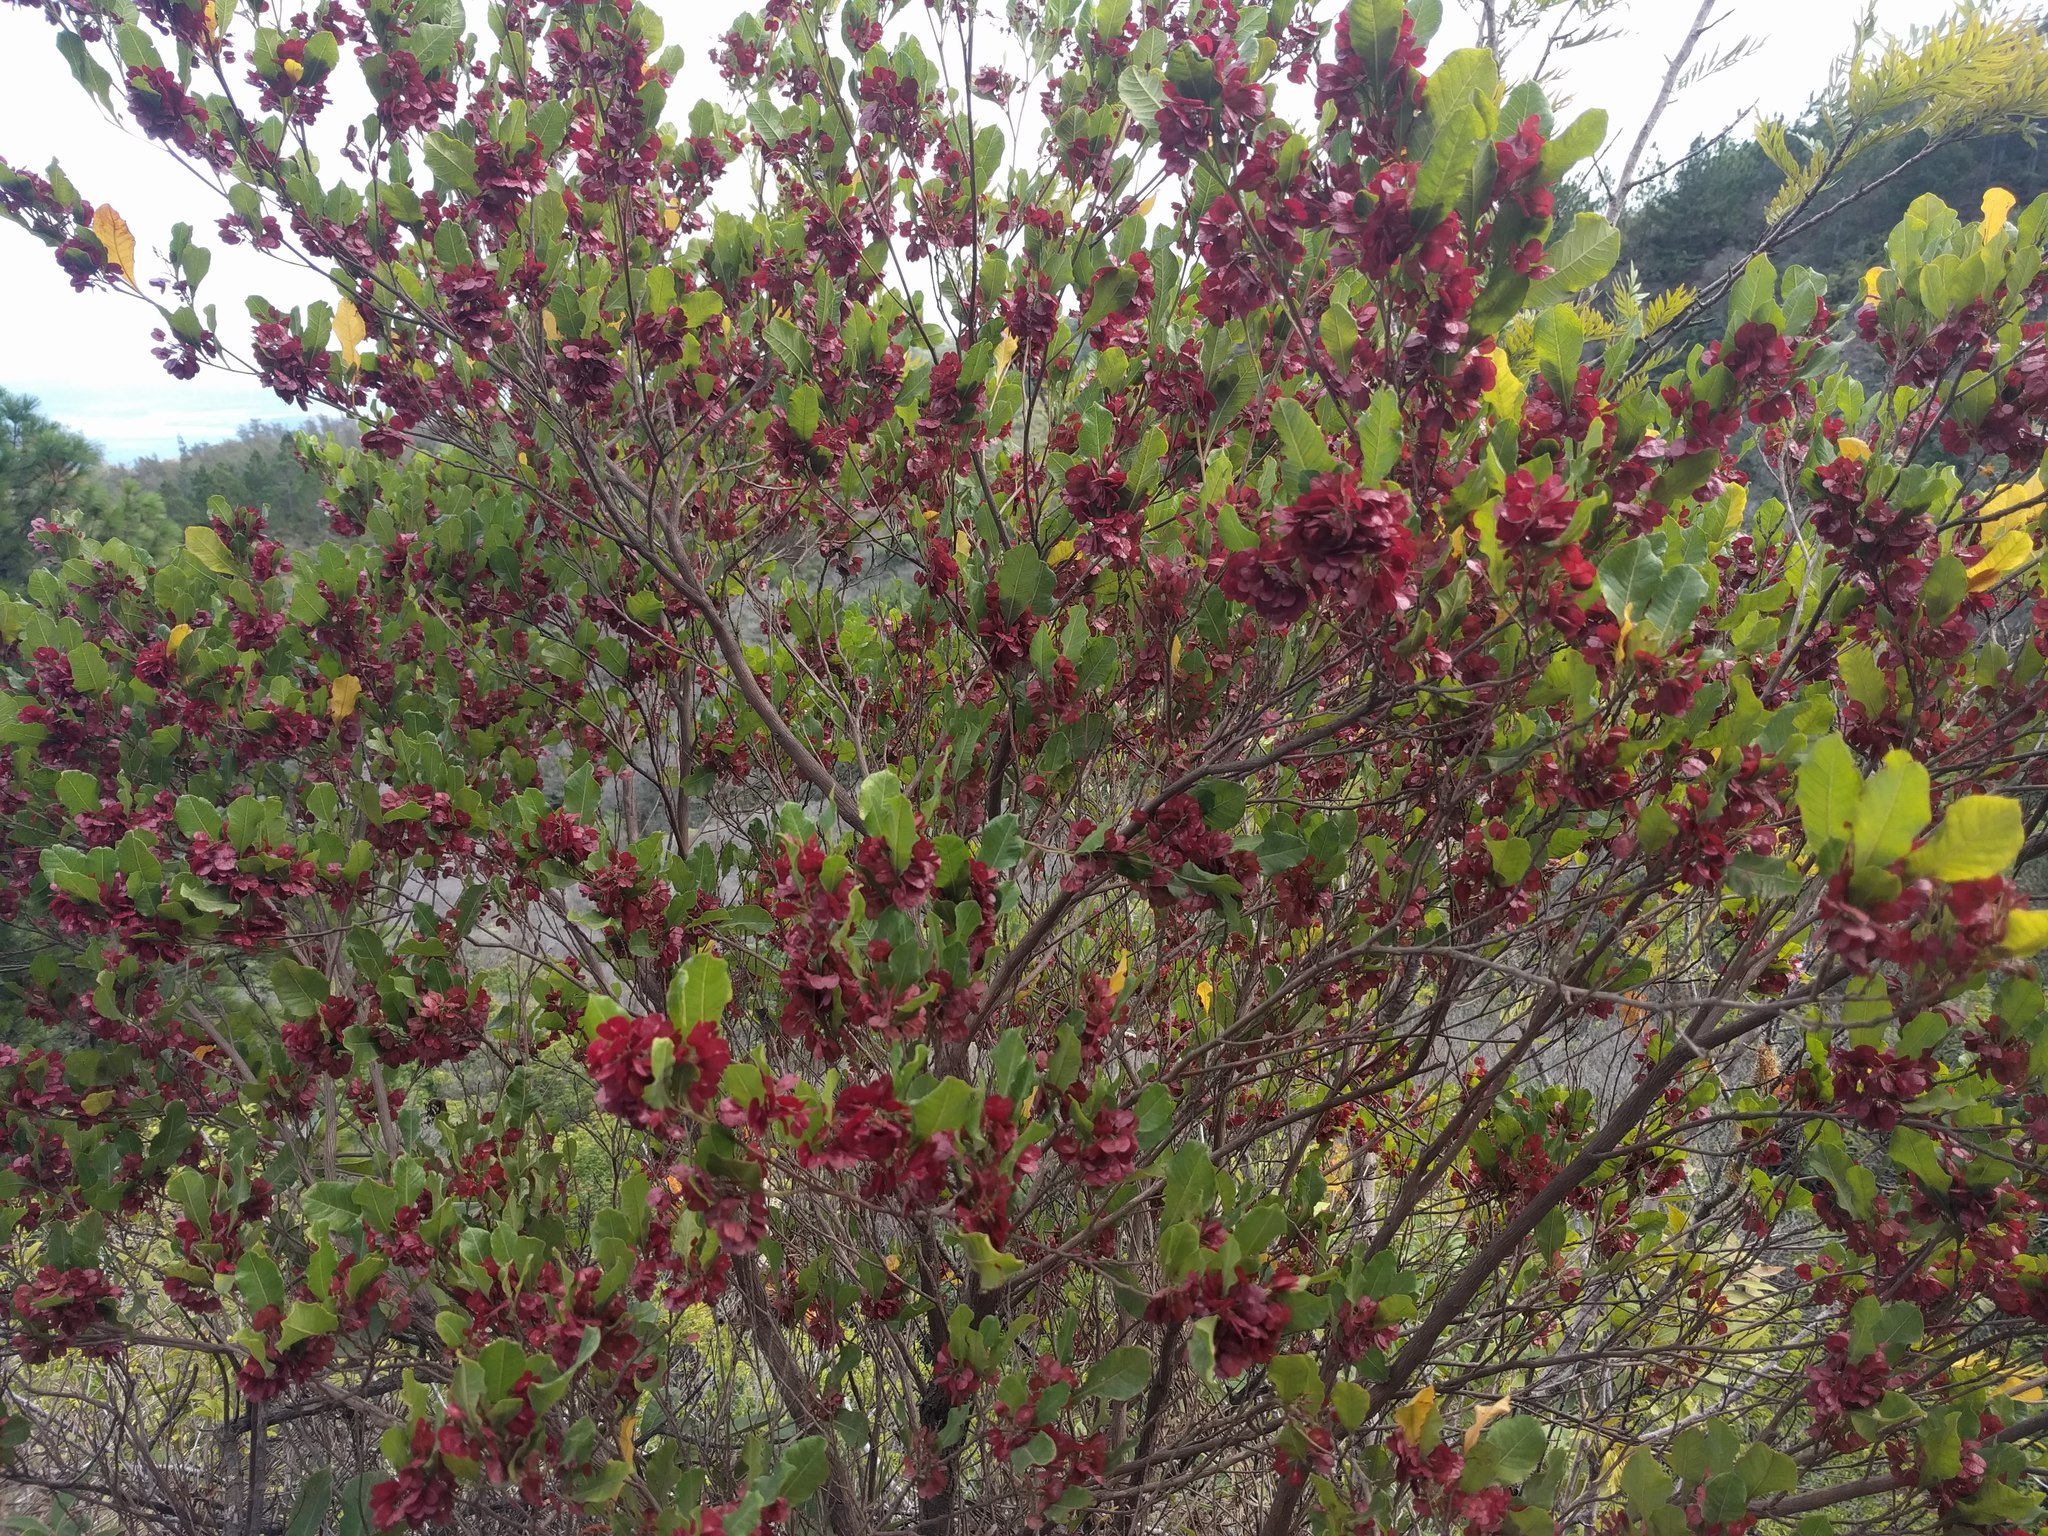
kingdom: Plantae
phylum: Tracheophyta
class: Magnoliopsida
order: Sapindales
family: Sapindaceae
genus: Dodonaea
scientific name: Dodonaea viscosa
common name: Hopbush
